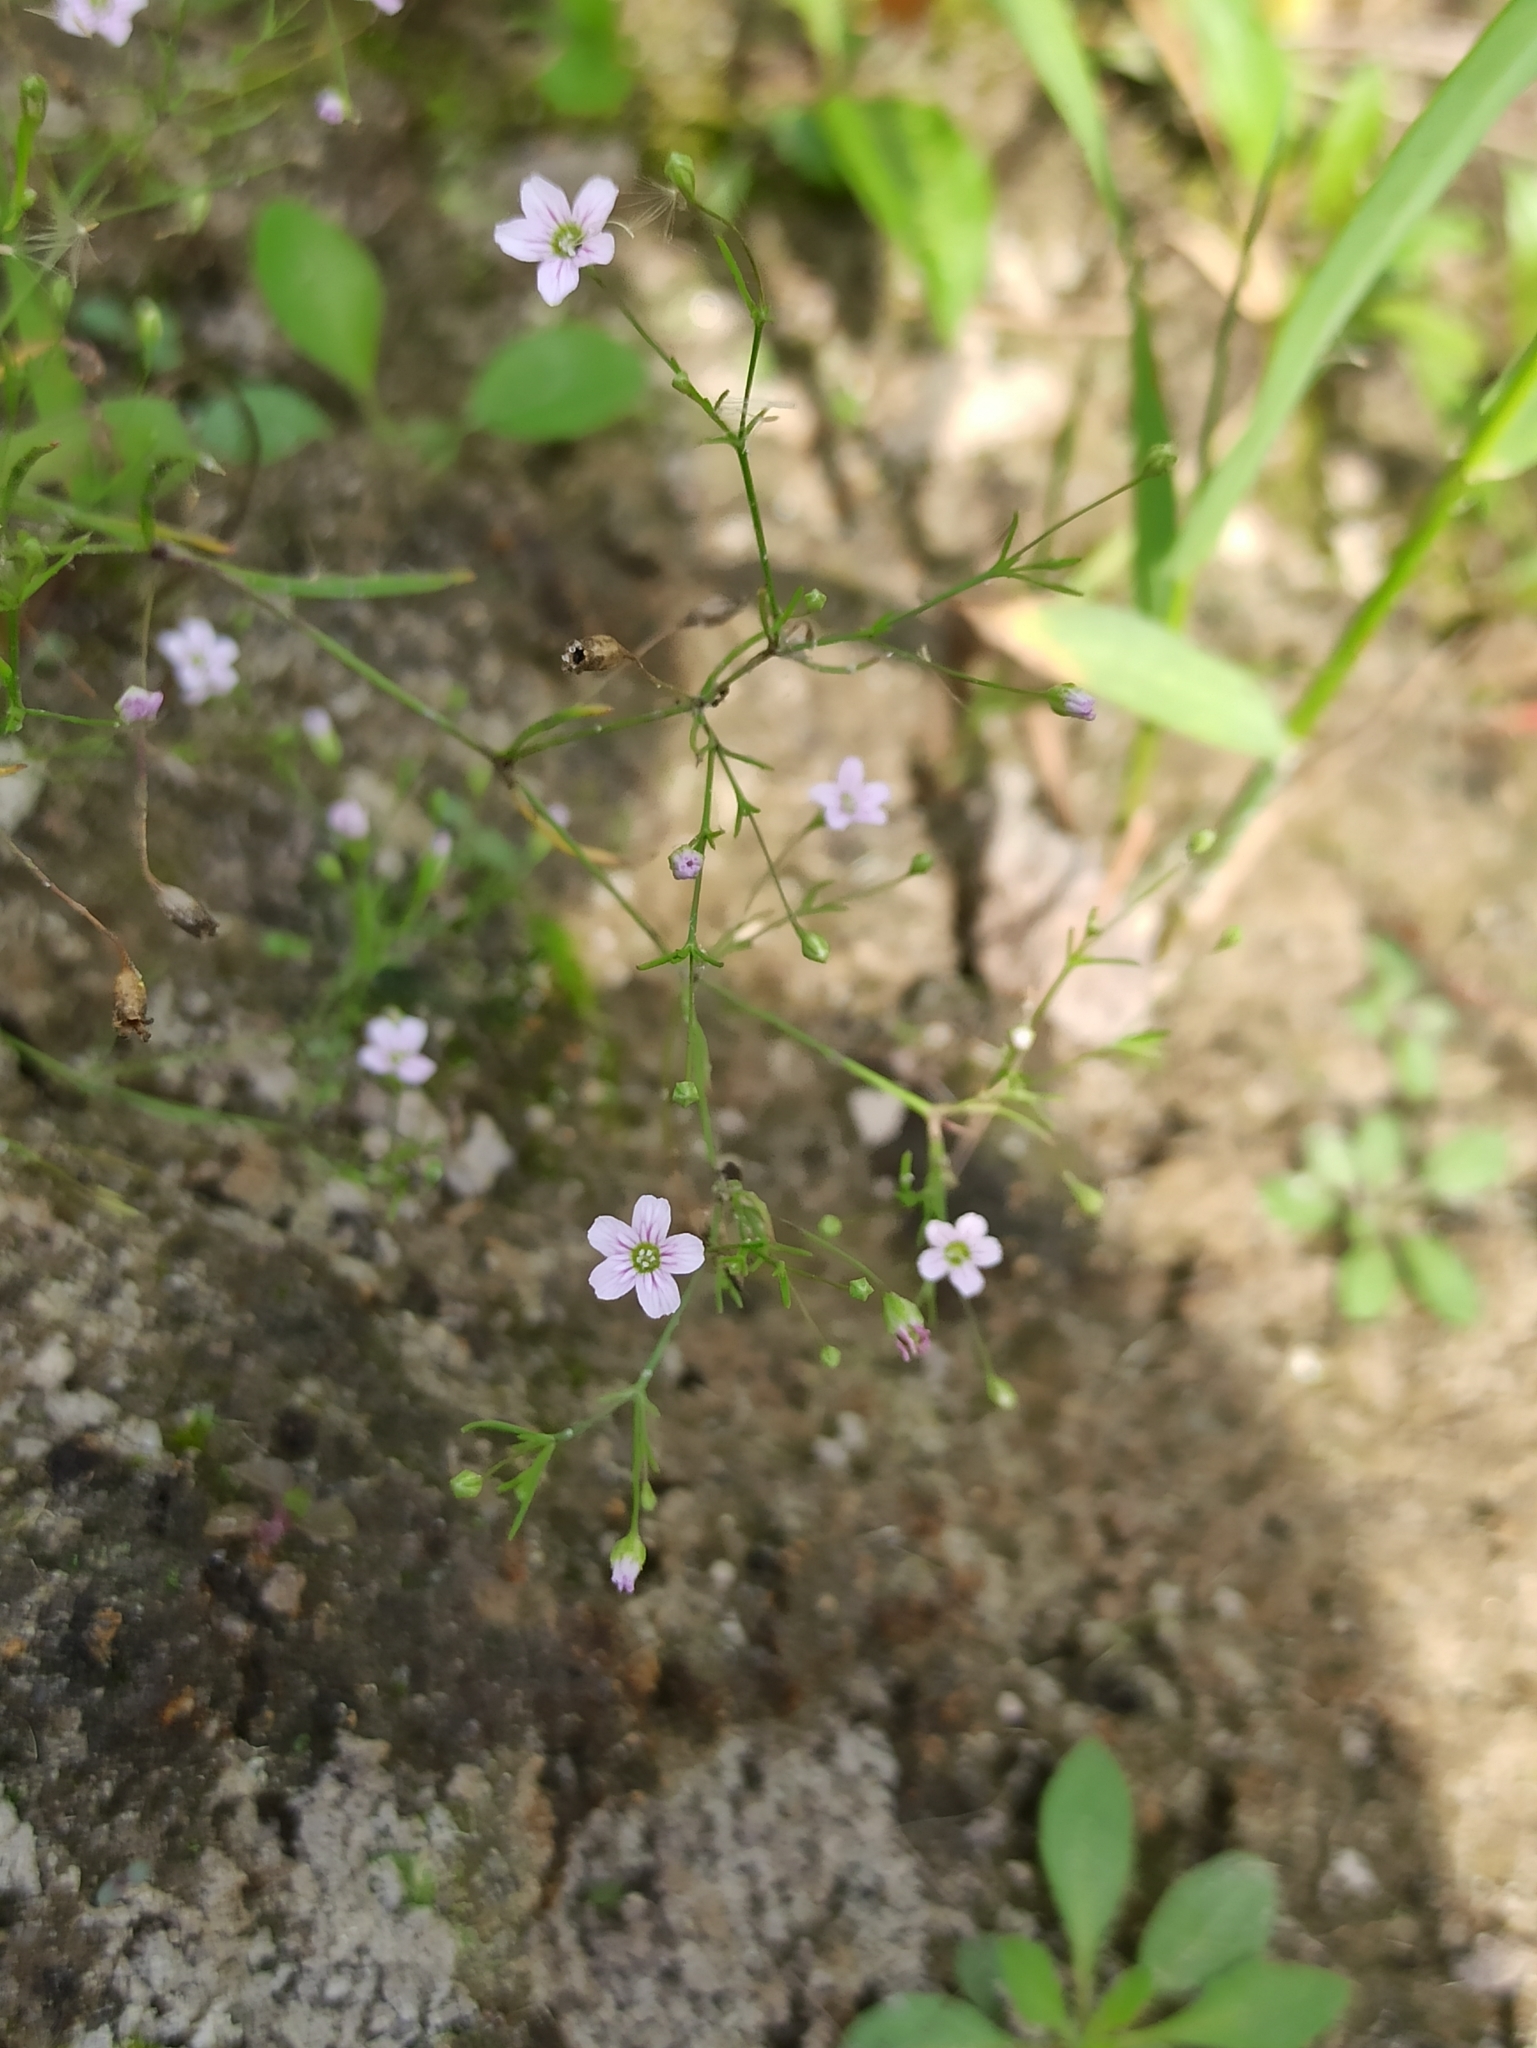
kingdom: Plantae
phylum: Tracheophyta
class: Magnoliopsida
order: Caryophyllales
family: Caryophyllaceae
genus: Psammophiliella
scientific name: Psammophiliella muralis
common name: Cushion baby's-breath
